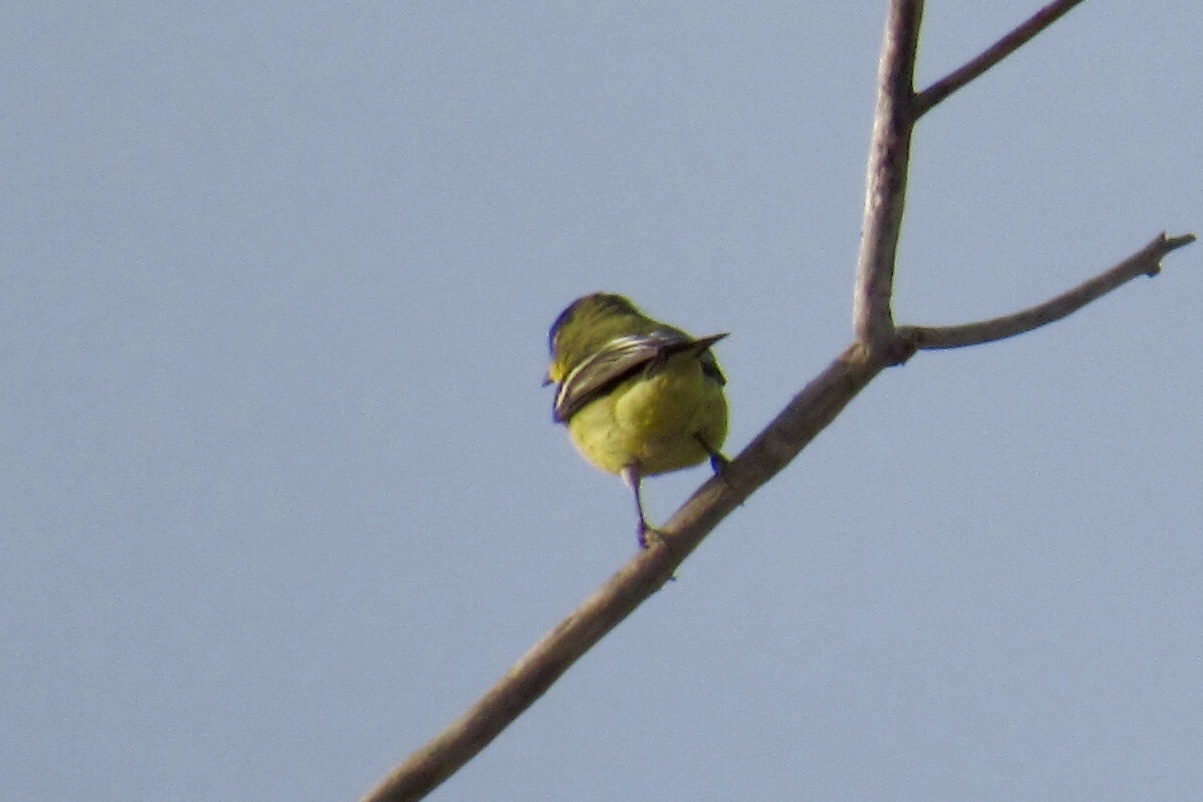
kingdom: Animalia
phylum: Chordata
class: Aves
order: Passeriformes
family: Fringillidae
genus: Spinus
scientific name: Spinus psaltria
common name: Lesser goldfinch
